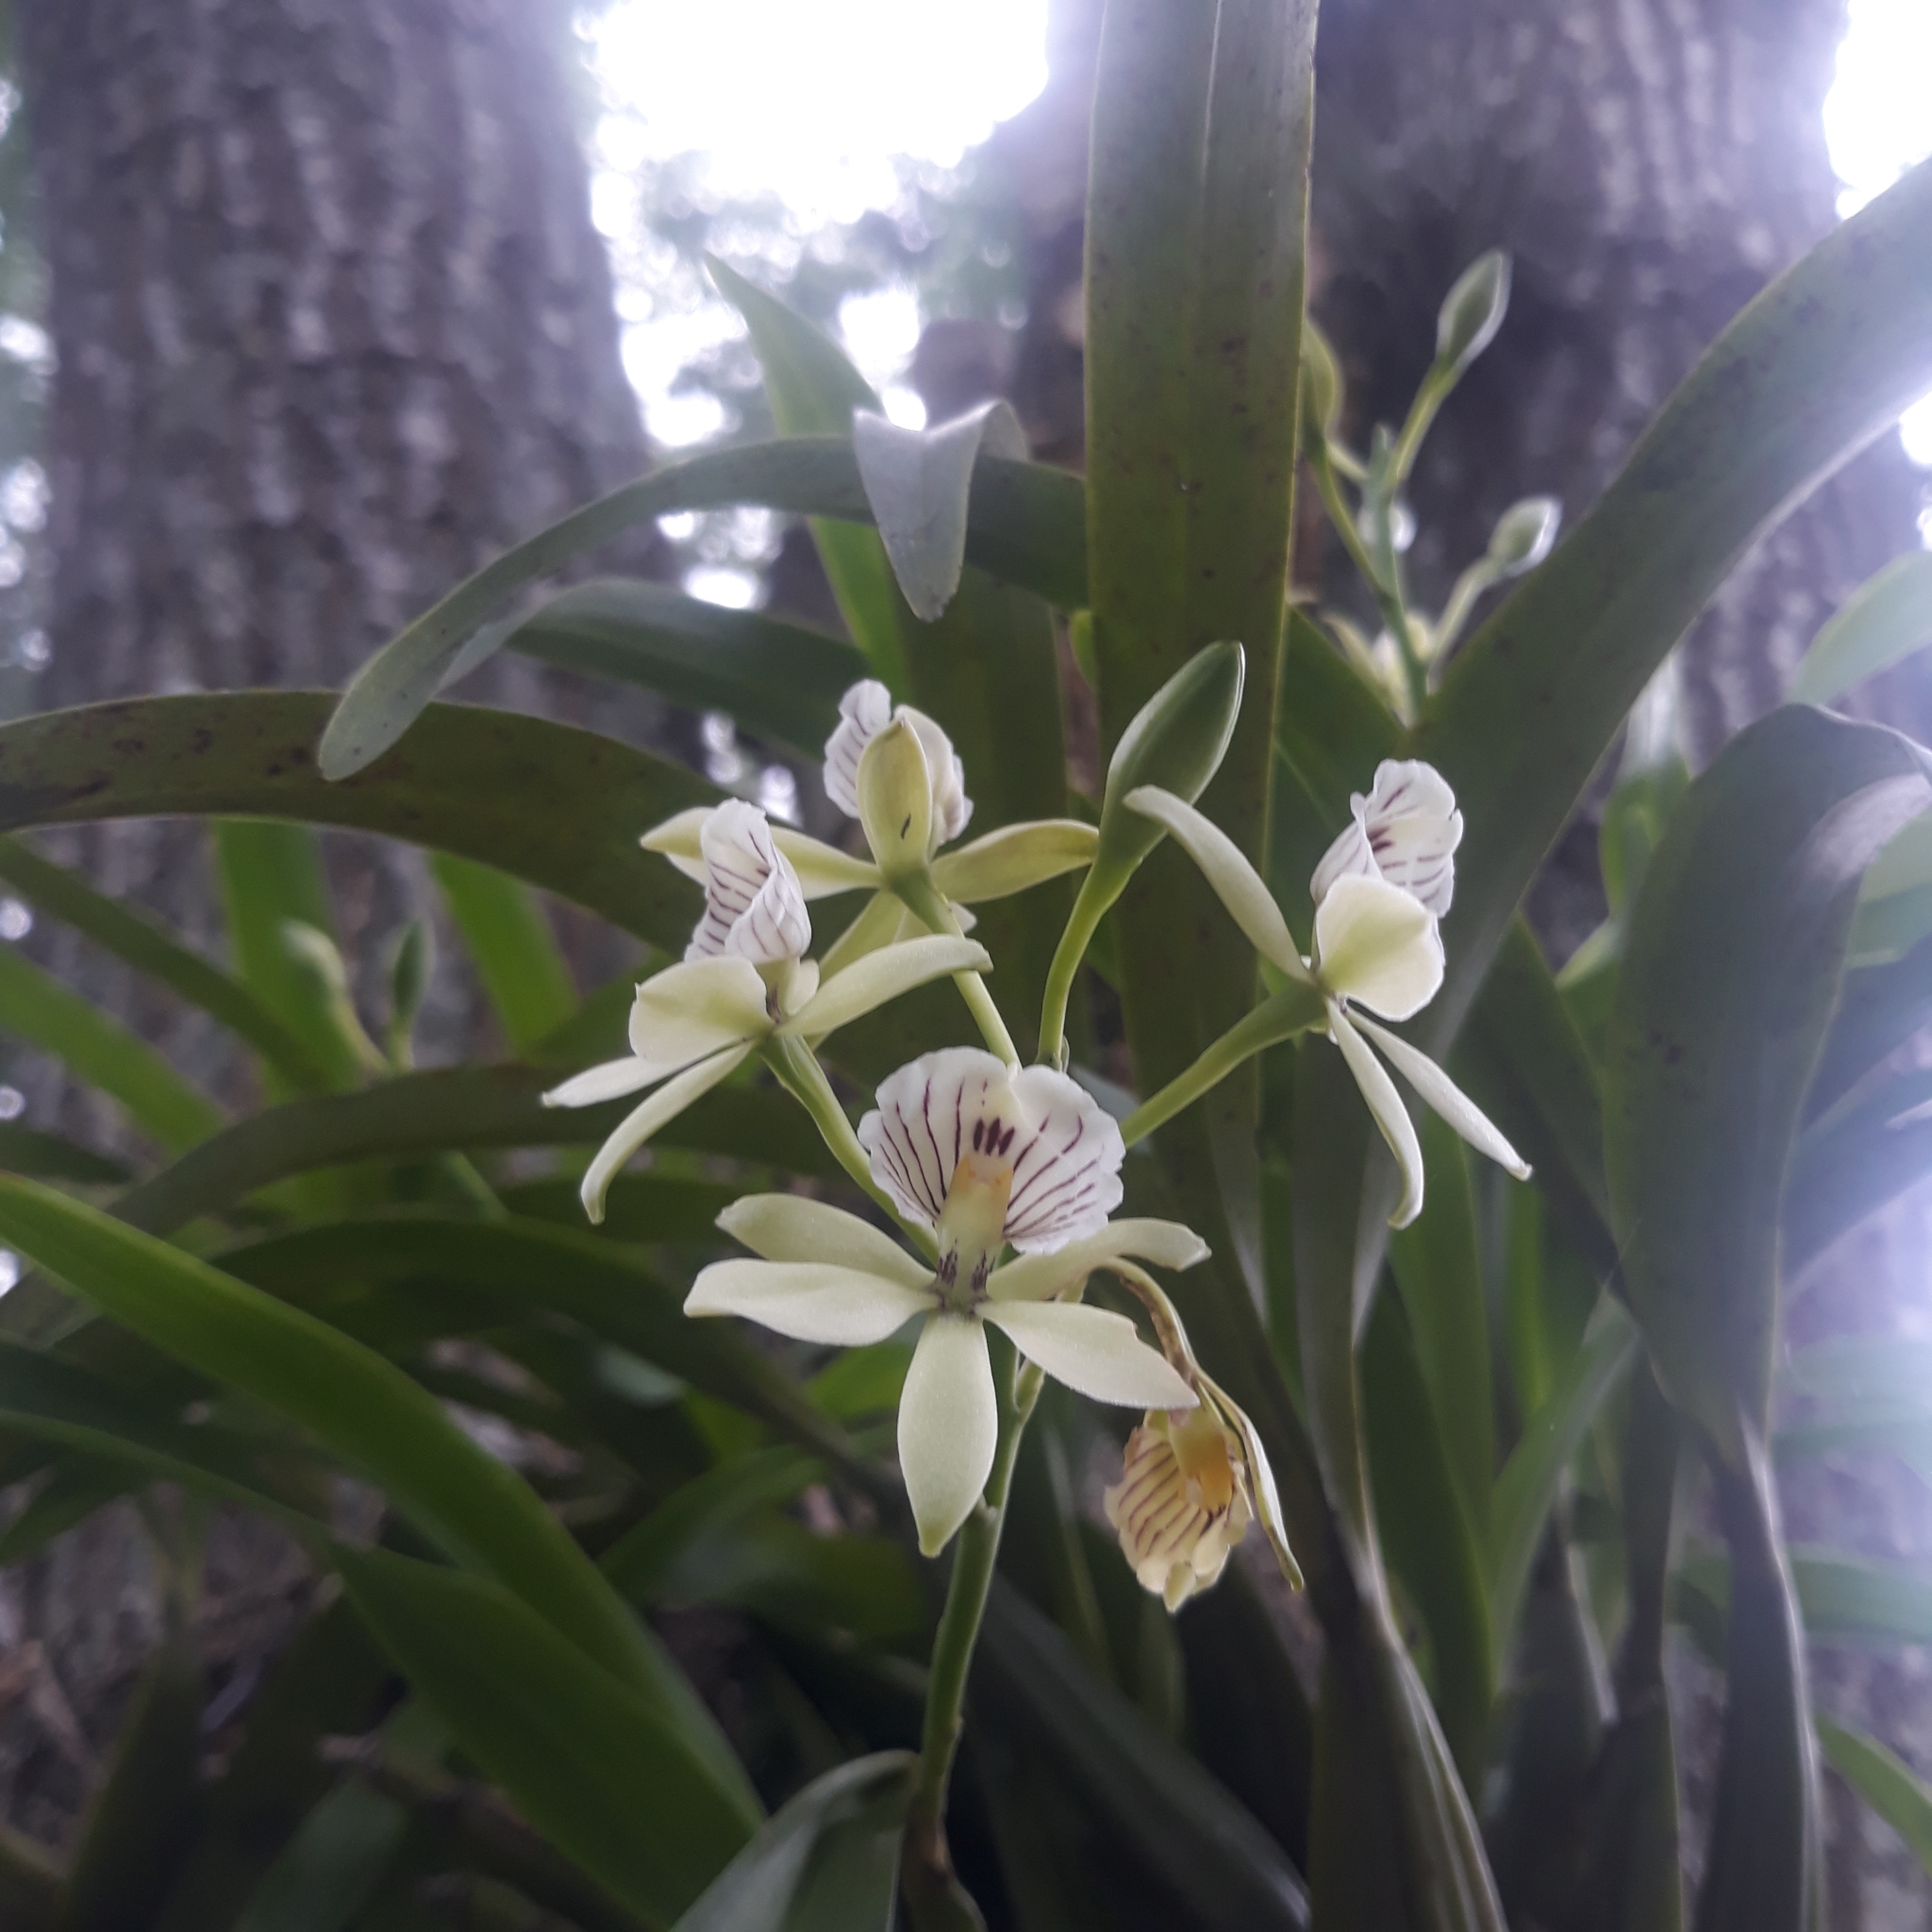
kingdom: Plantae
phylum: Tracheophyta
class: Liliopsida
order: Asparagales
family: Orchidaceae
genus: Prosthechea
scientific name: Prosthechea radiata
